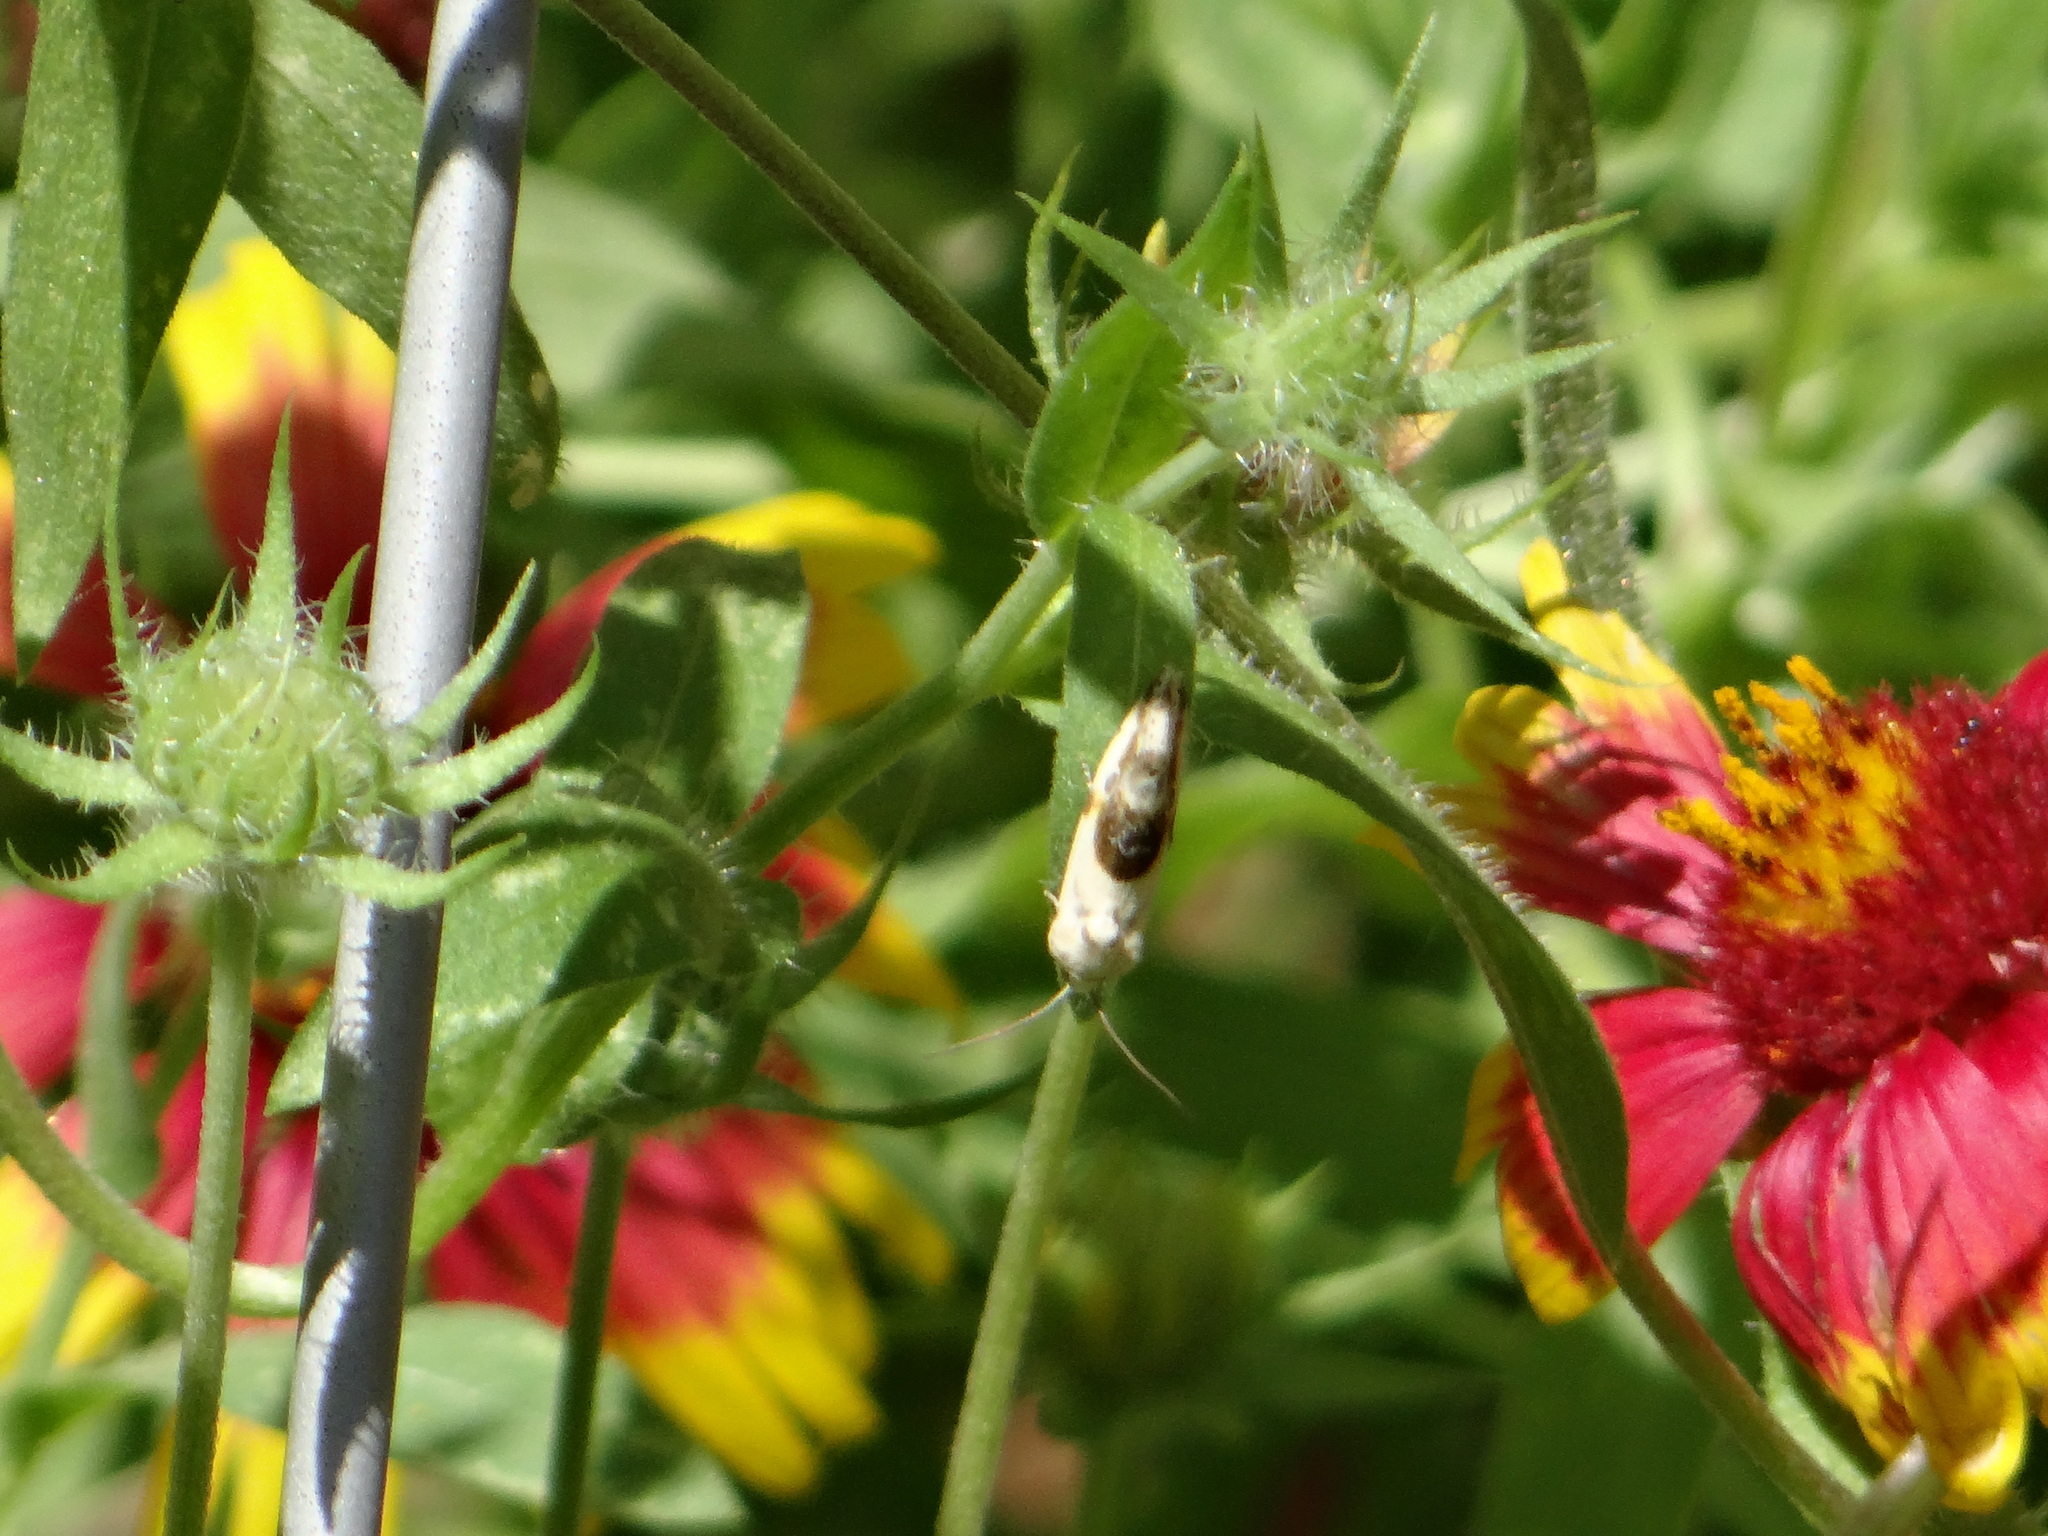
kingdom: Animalia
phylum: Arthropoda
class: Insecta
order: Lepidoptera
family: Noctuidae
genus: Acontia
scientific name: Acontia candefacta
